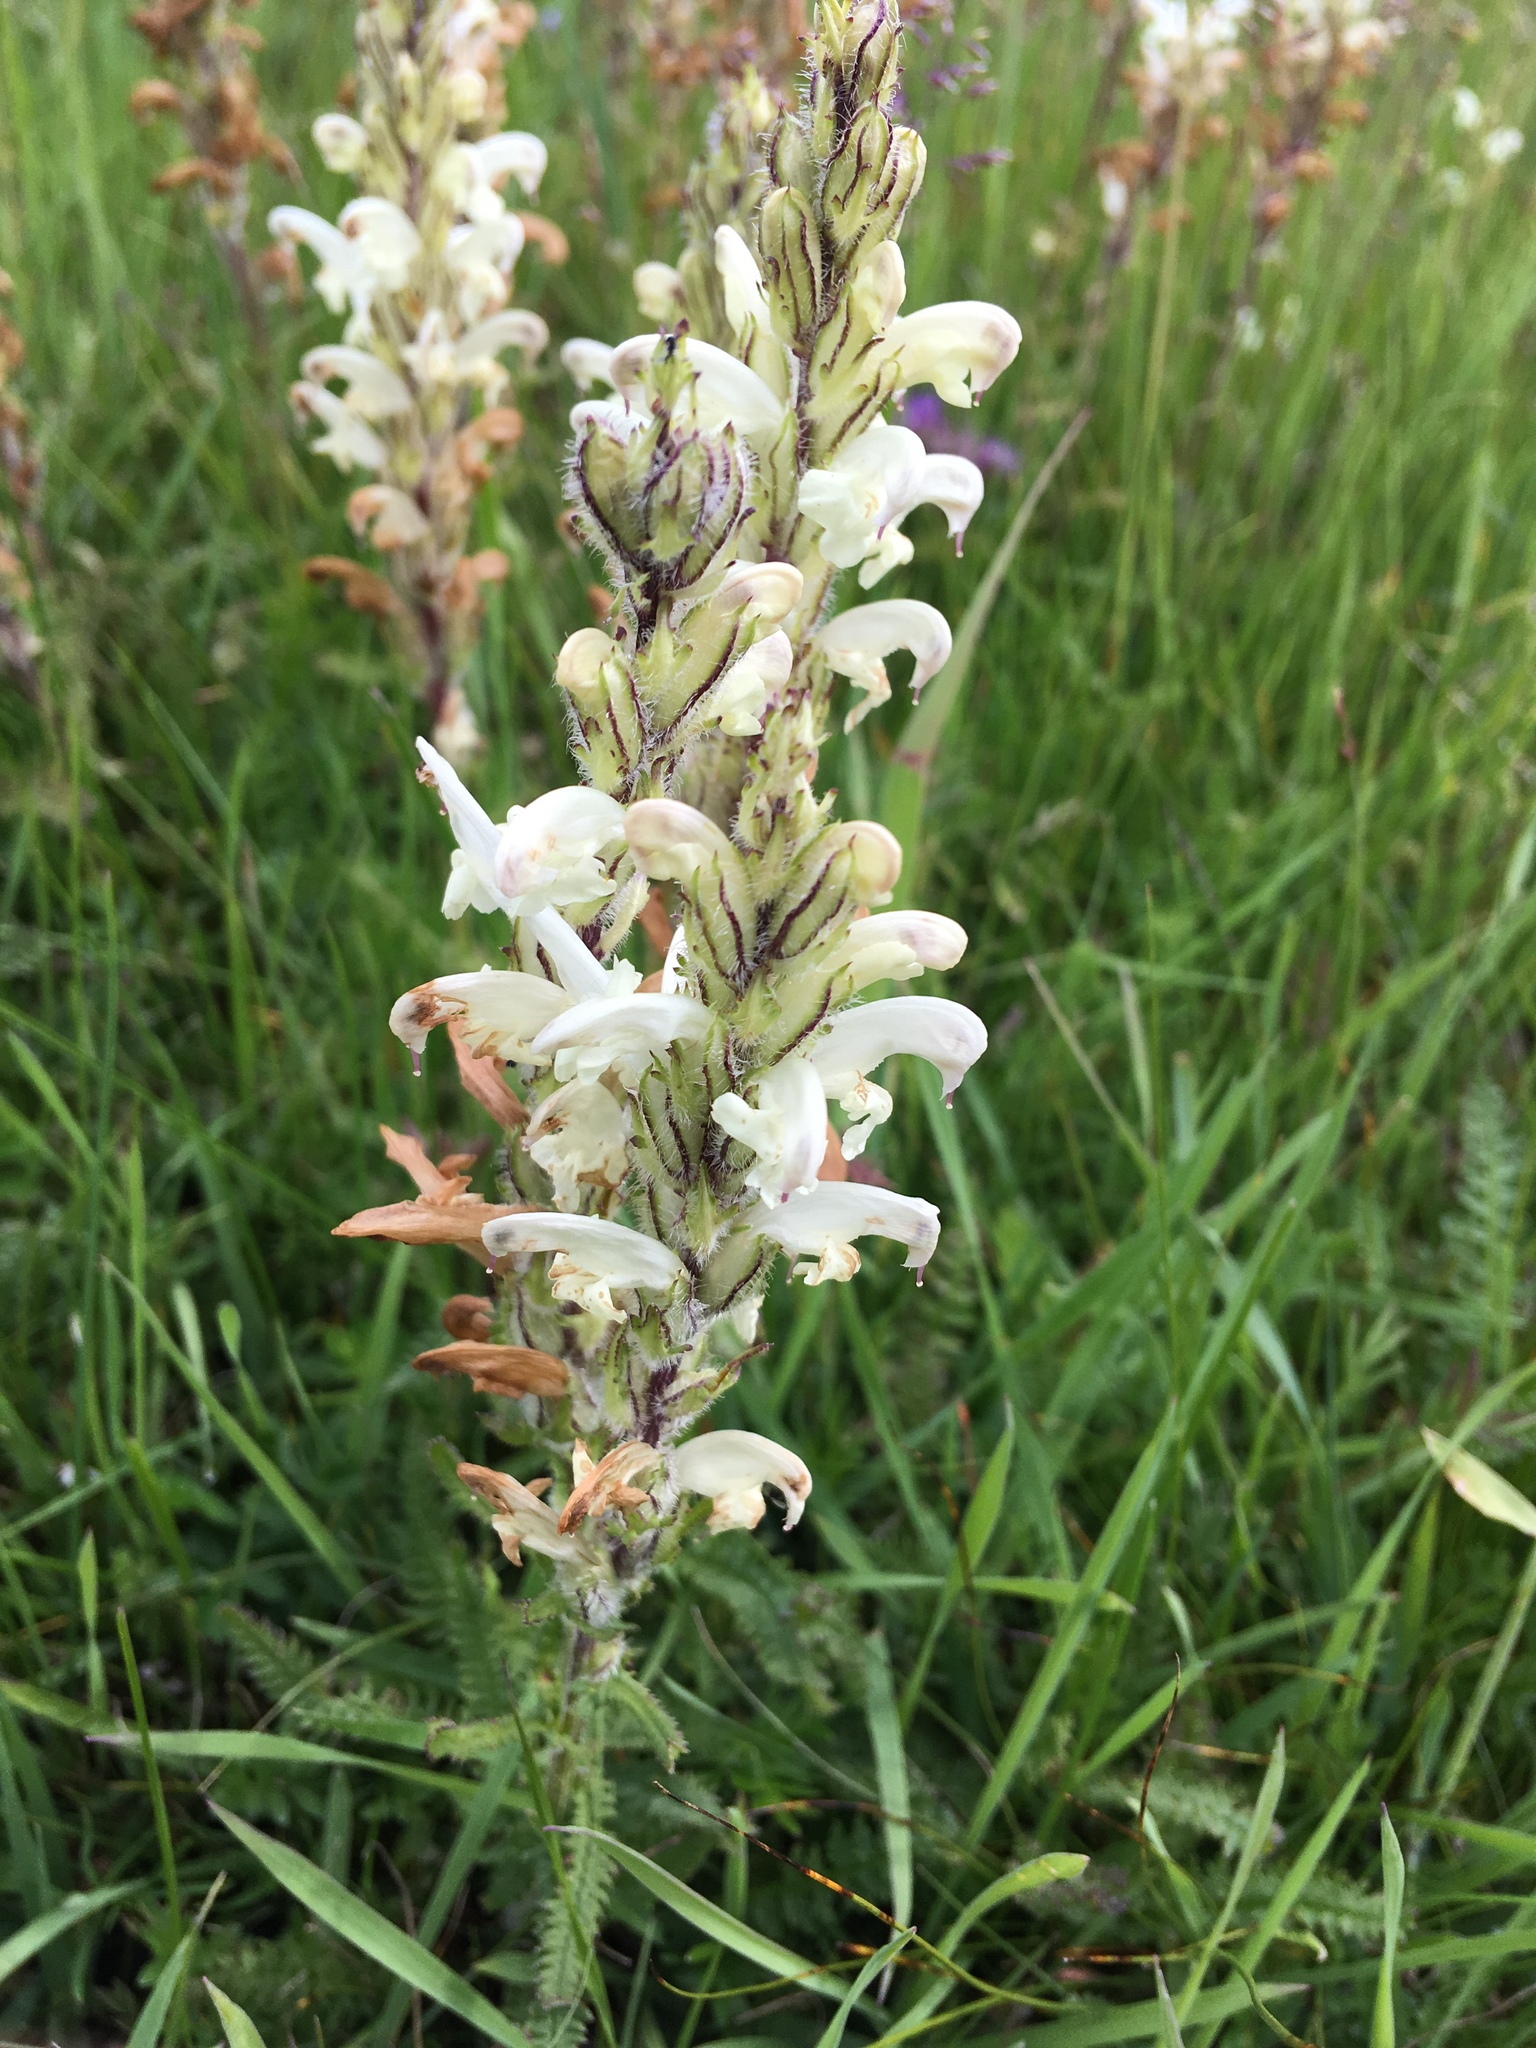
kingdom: Plantae
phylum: Tracheophyta
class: Magnoliopsida
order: Lamiales
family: Orobanchaceae
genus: Pedicularis
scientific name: Pedicularis venusta
